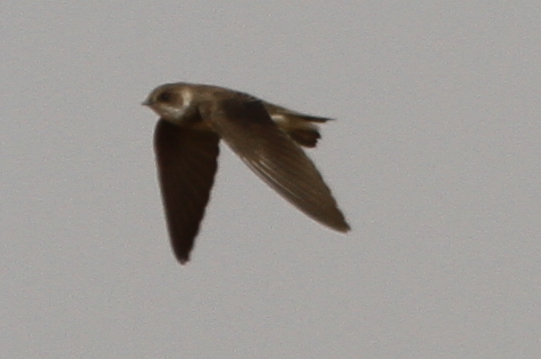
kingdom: Animalia
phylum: Chordata
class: Aves
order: Passeriformes
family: Hirundinidae
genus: Riparia
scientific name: Riparia riparia
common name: Sand martin
